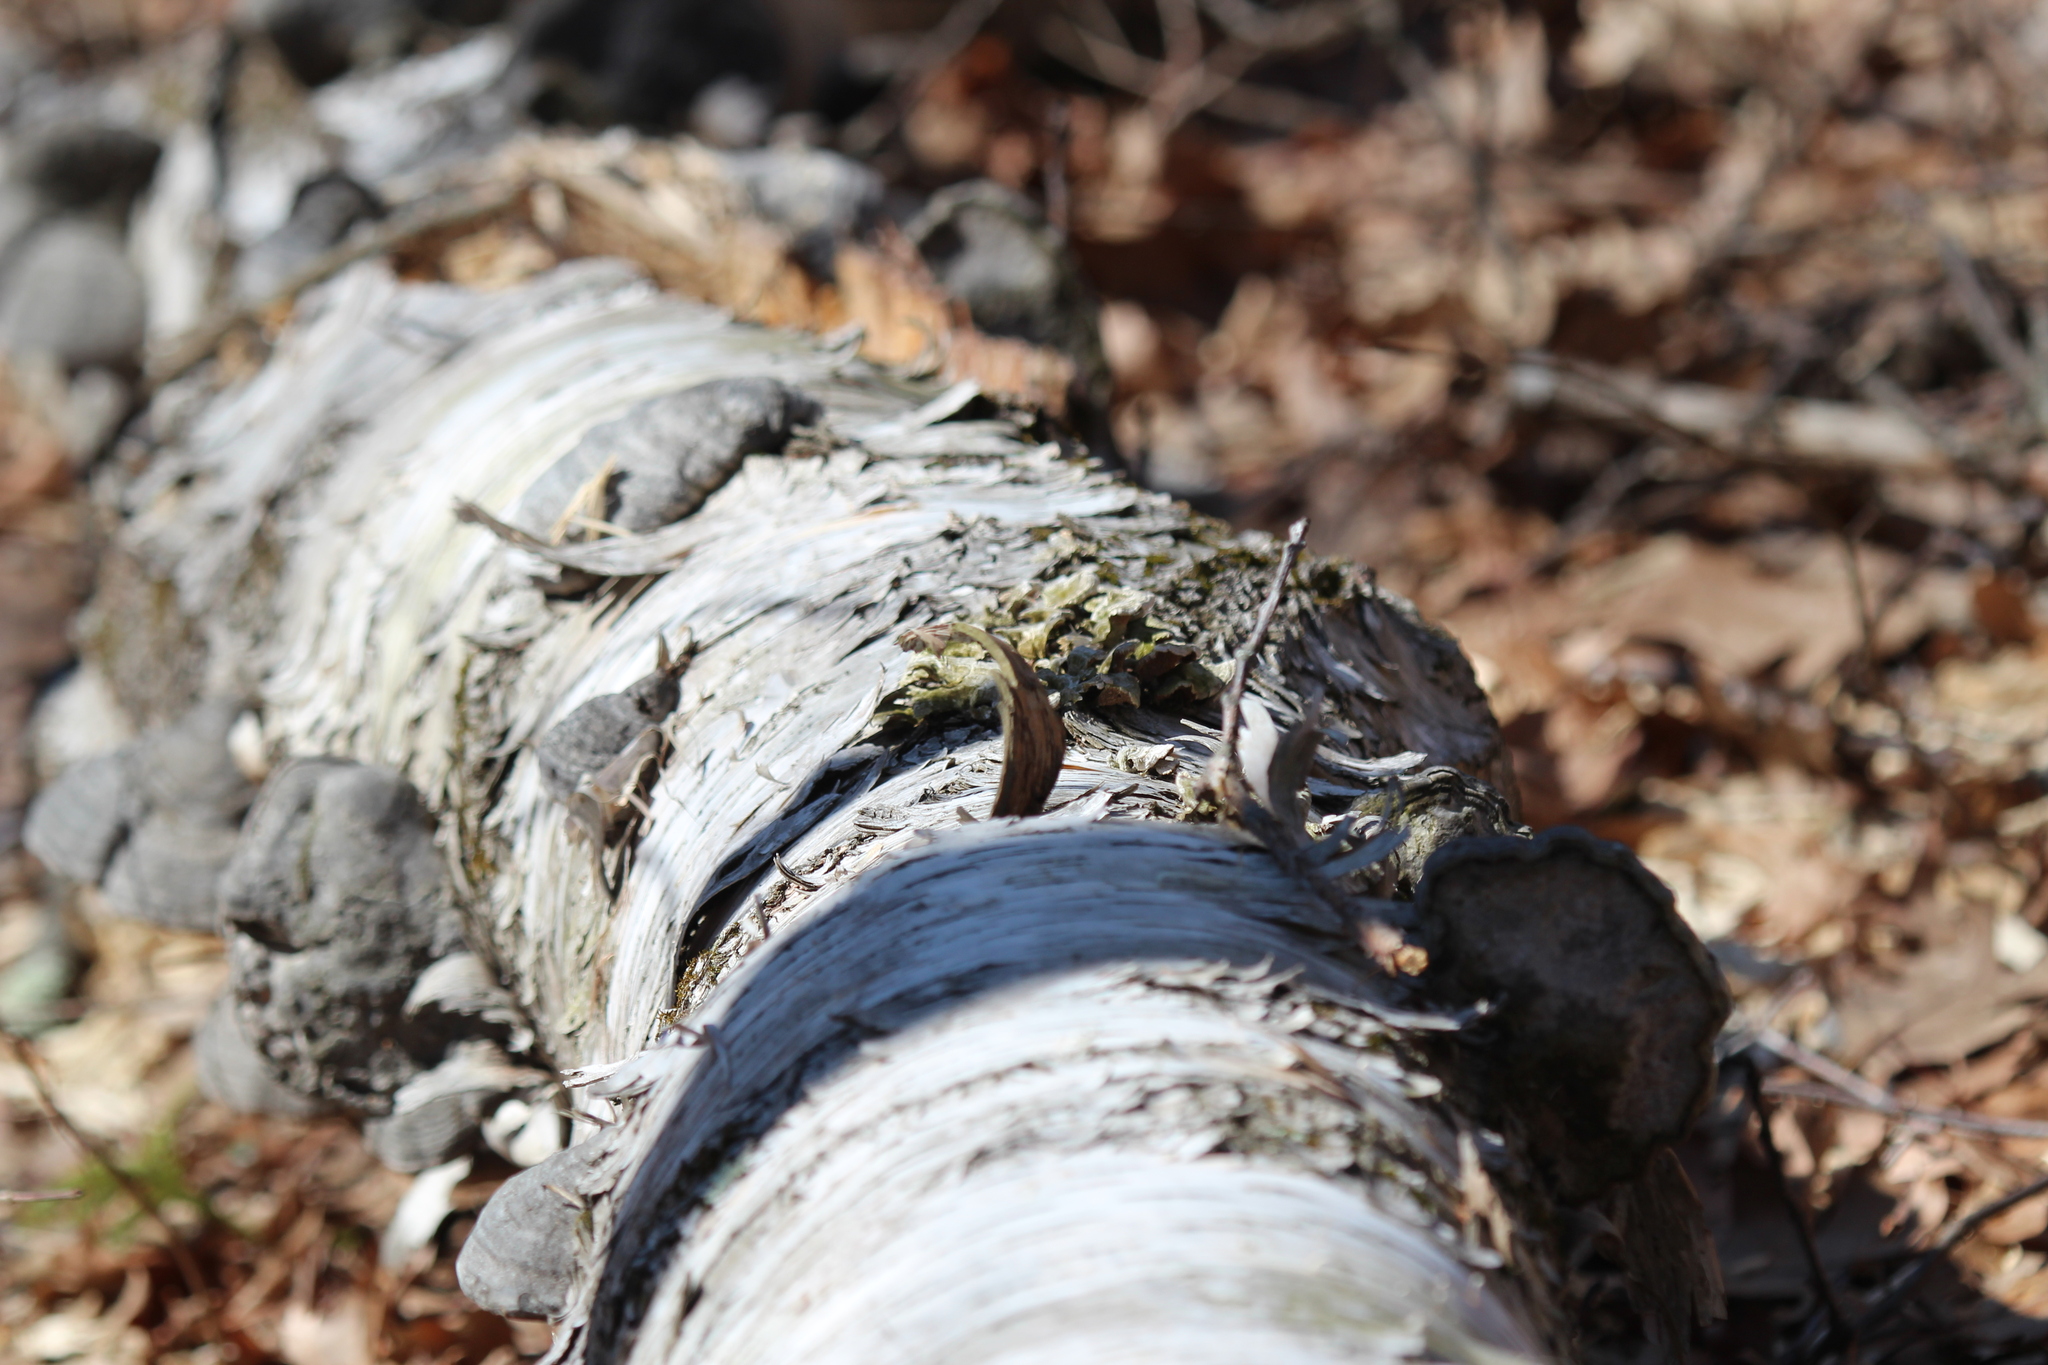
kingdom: Plantae
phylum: Tracheophyta
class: Magnoliopsida
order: Fagales
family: Betulaceae
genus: Betula
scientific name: Betula papyrifera
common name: Paper birch
